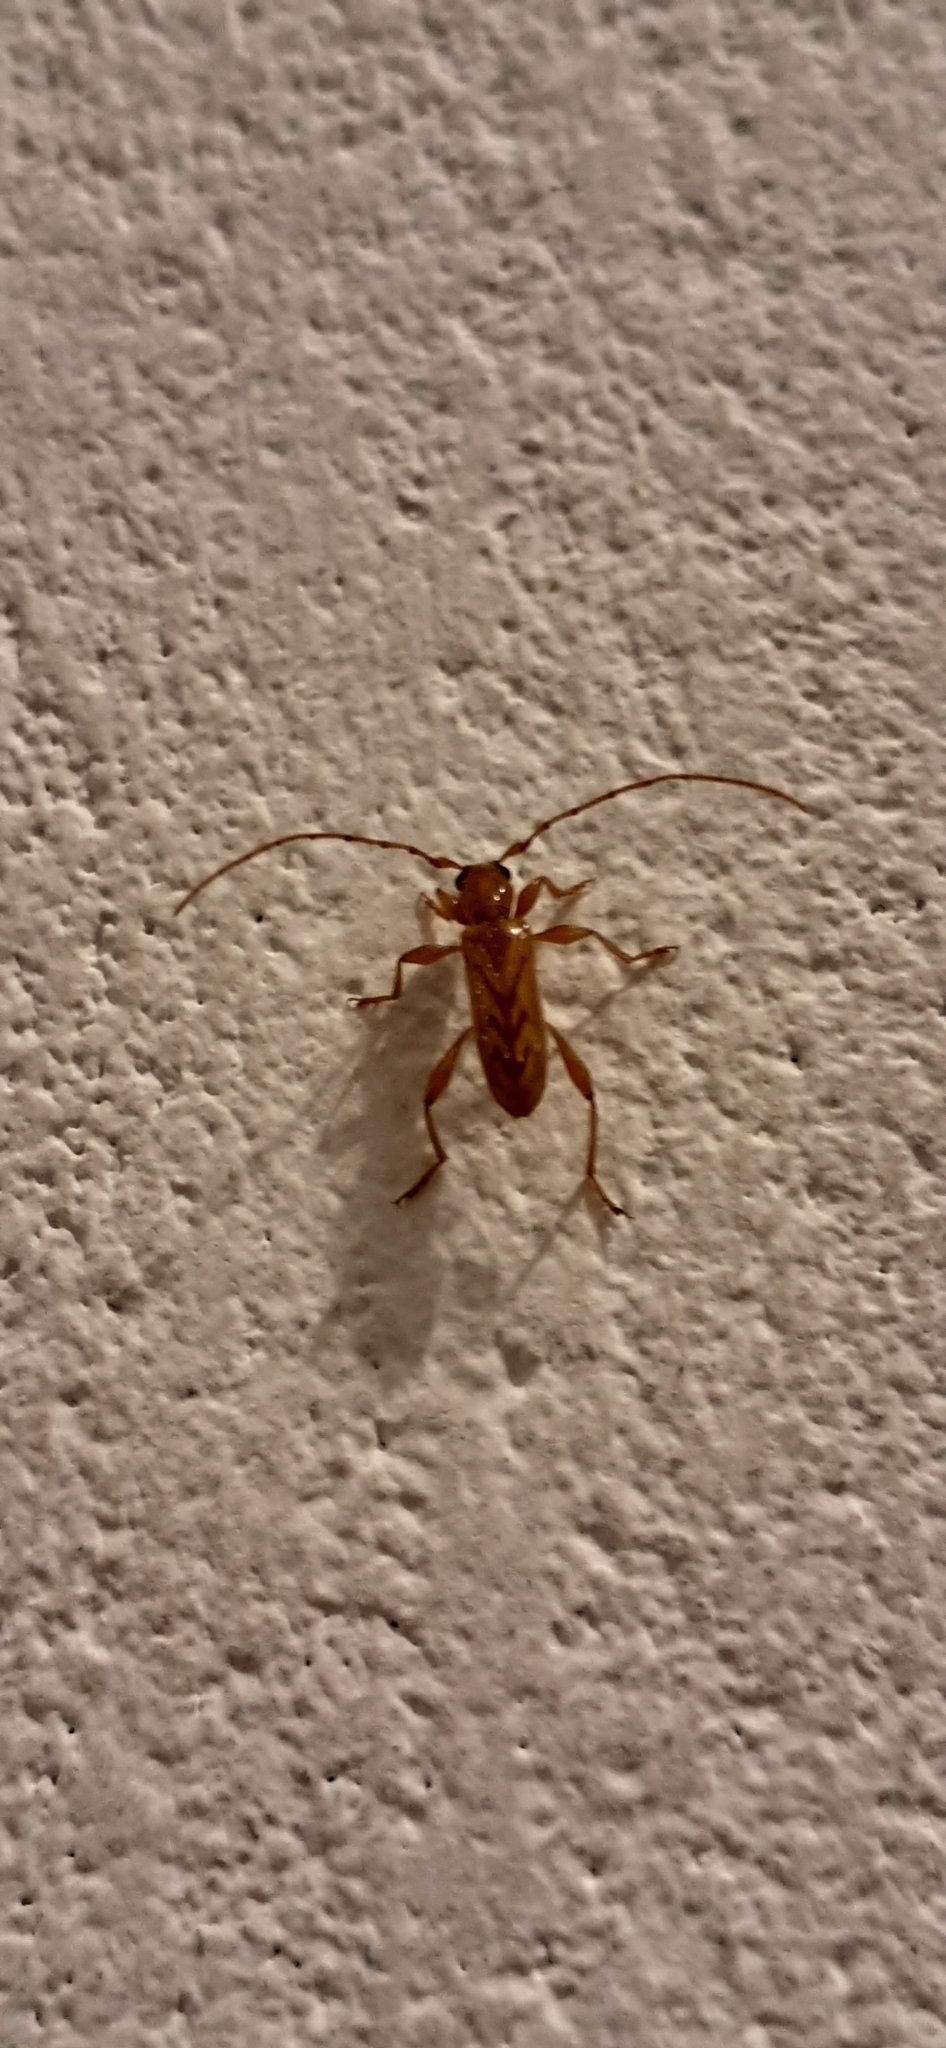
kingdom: Animalia
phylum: Arthropoda
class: Insecta
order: Coleoptera
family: Cerambycidae
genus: Obrium
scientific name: Obrium circunflexum
